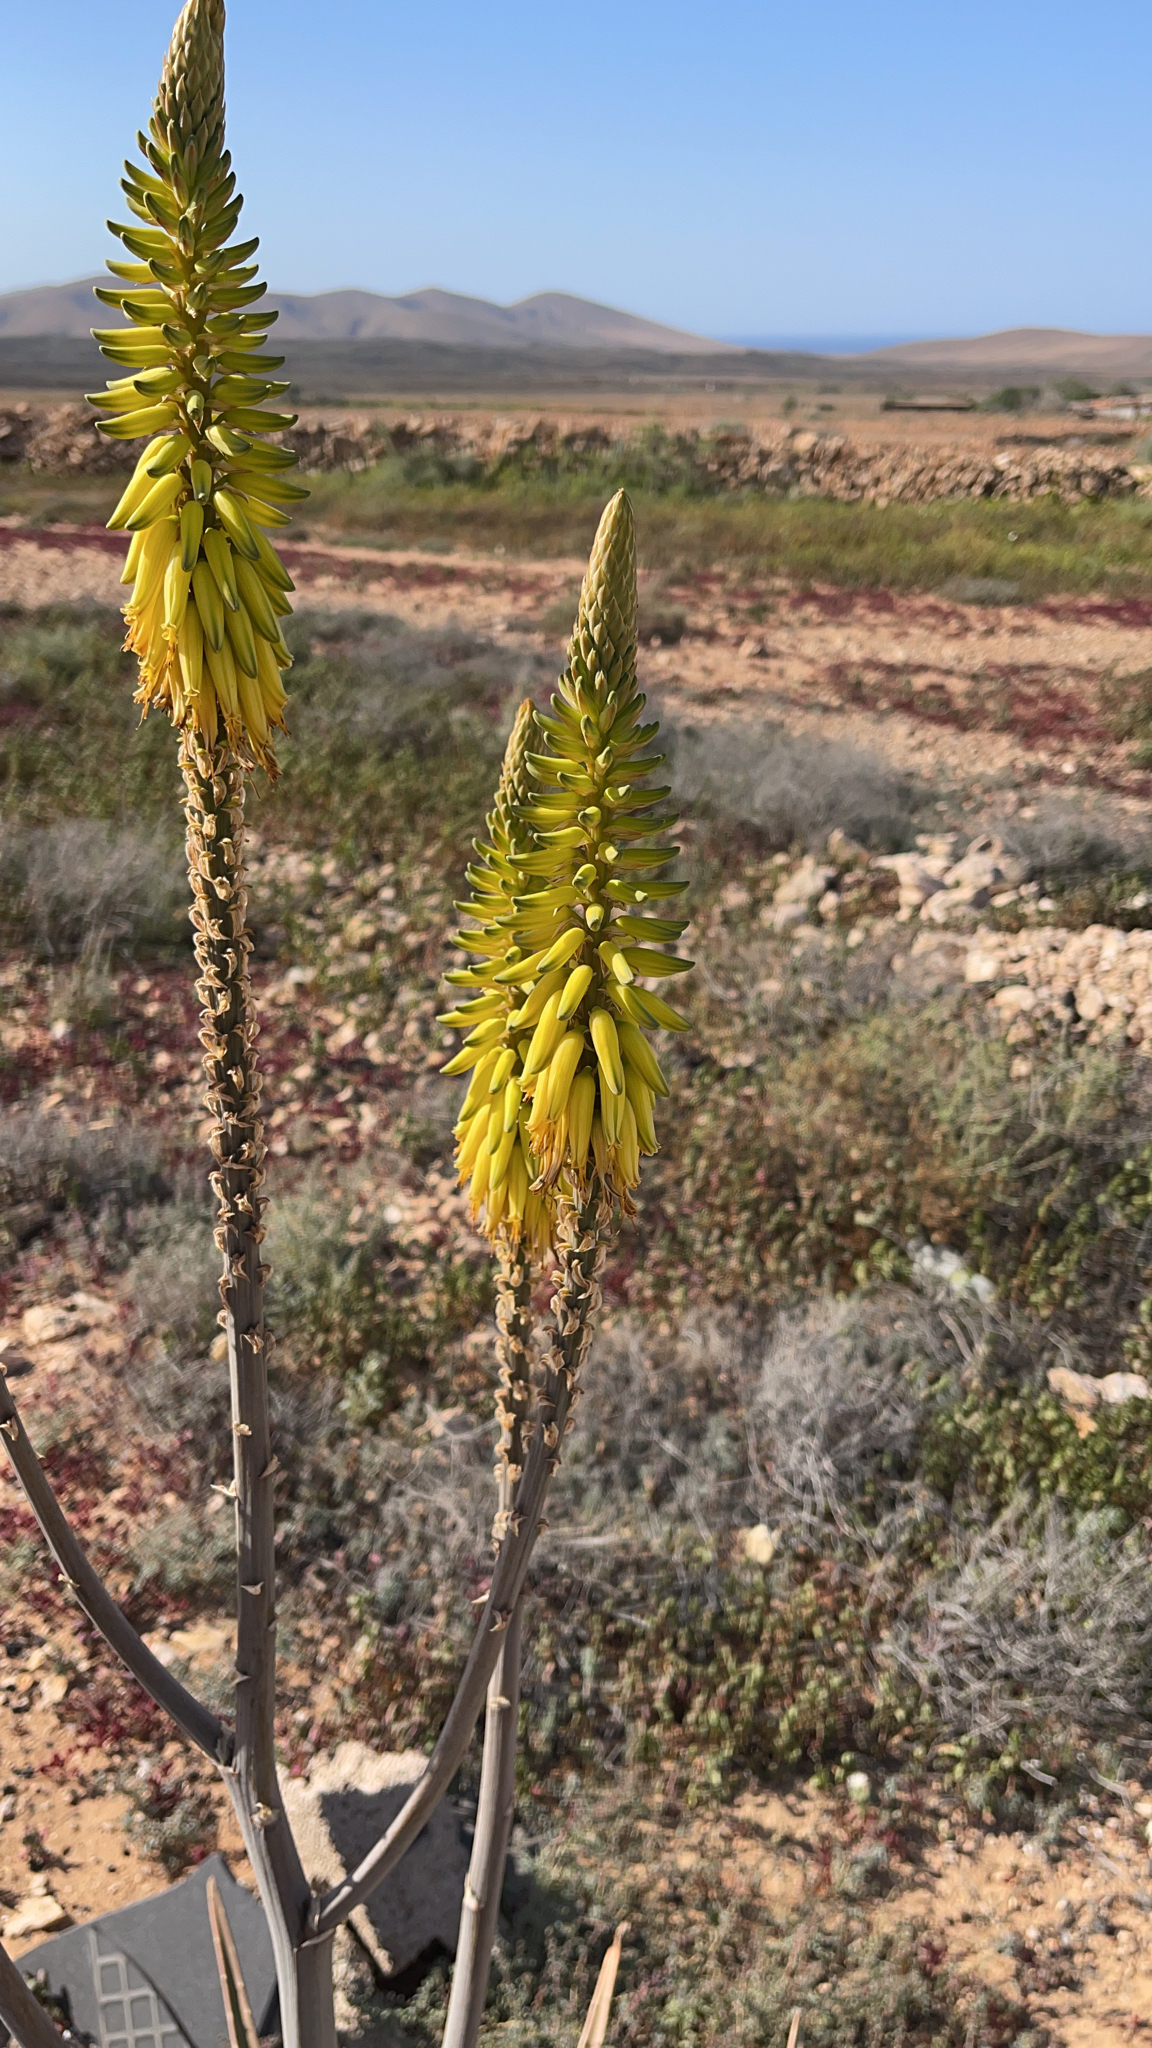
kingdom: Plantae
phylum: Tracheophyta
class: Liliopsida
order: Asparagales
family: Asphodelaceae
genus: Aloe
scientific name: Aloe vera
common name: Barbados aloe
